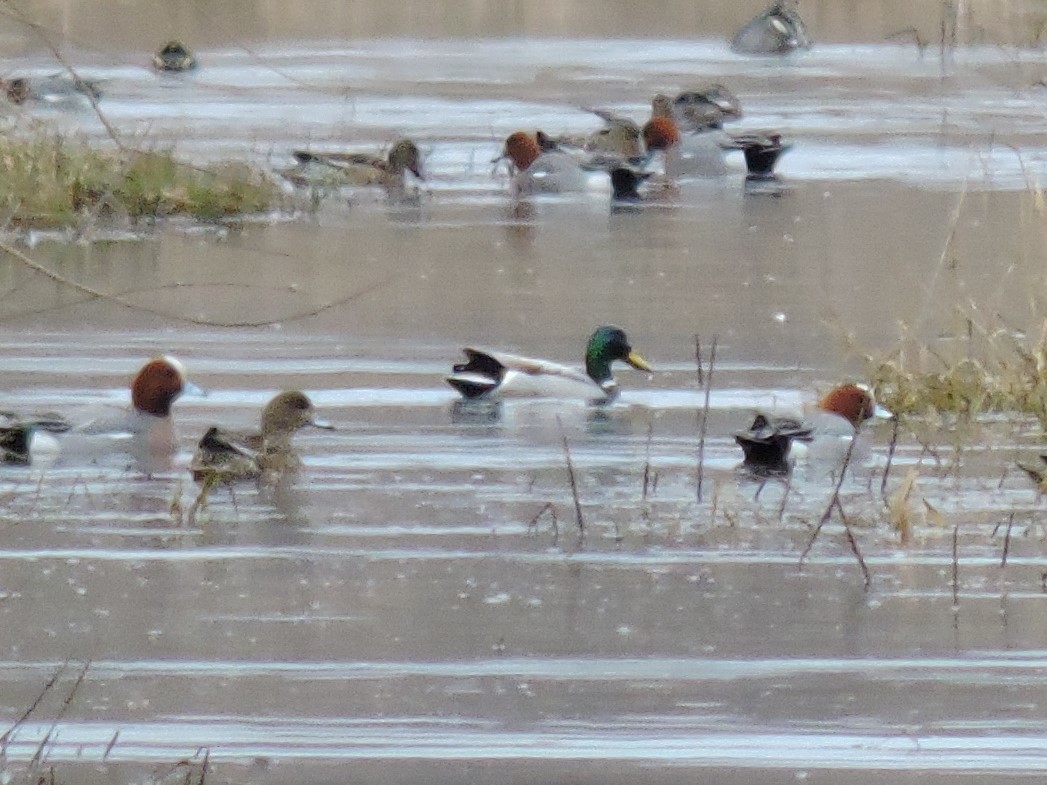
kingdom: Animalia
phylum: Chordata
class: Aves
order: Anseriformes
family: Anatidae
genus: Anas
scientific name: Anas platyrhynchos
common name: Mallard
